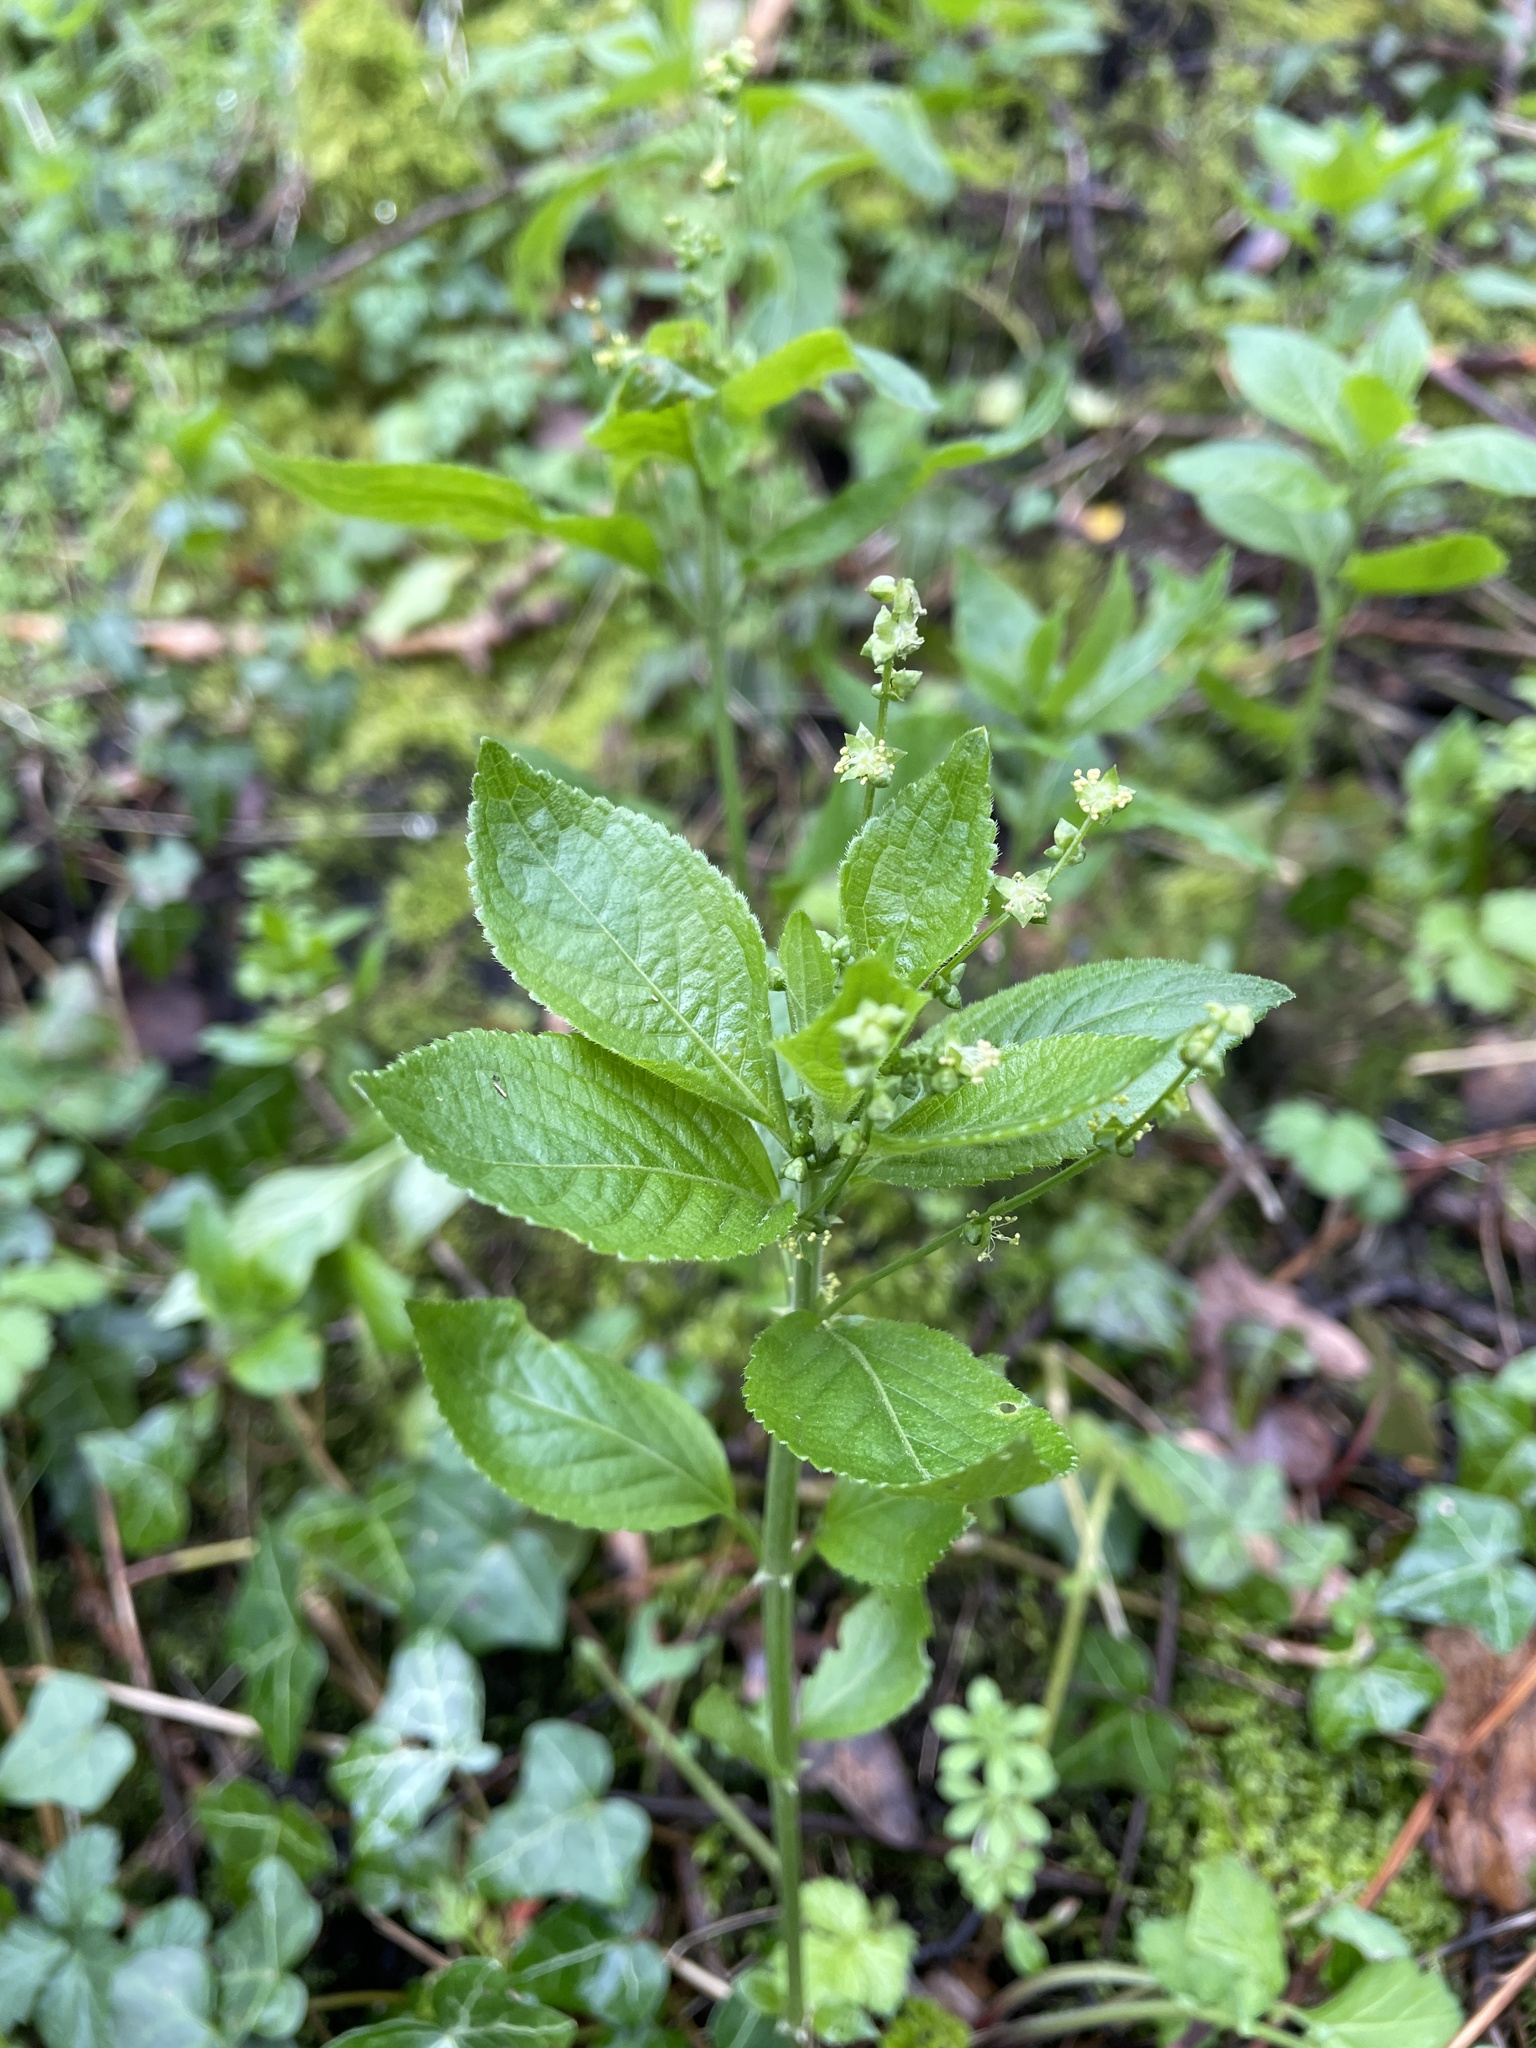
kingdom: Plantae
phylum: Tracheophyta
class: Magnoliopsida
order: Malpighiales
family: Euphorbiaceae
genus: Mercurialis
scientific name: Mercurialis perennis
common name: Dog mercury
